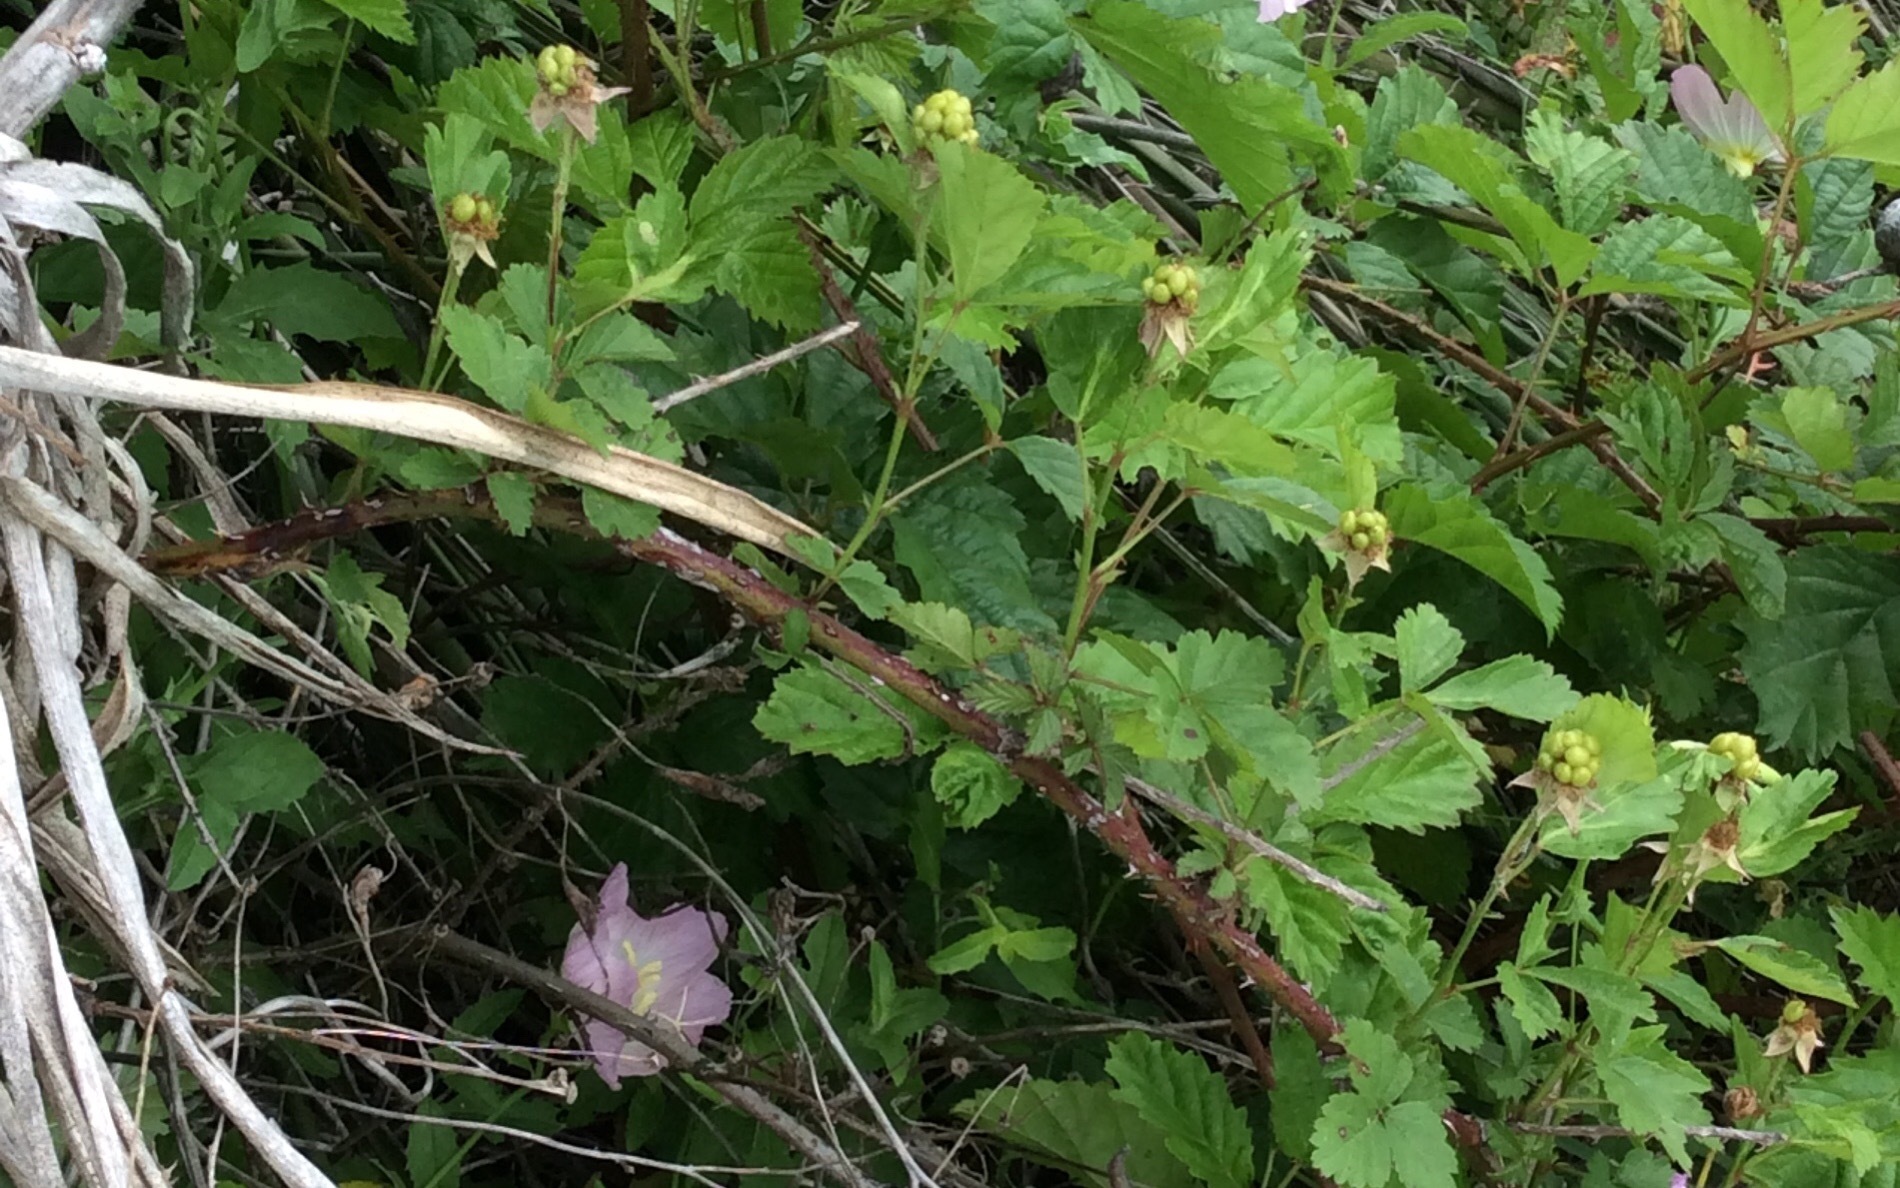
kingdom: Plantae
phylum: Tracheophyta
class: Magnoliopsida
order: Rosales
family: Rosaceae
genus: Rubus
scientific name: Rubus trivialis
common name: Southern dewberry
